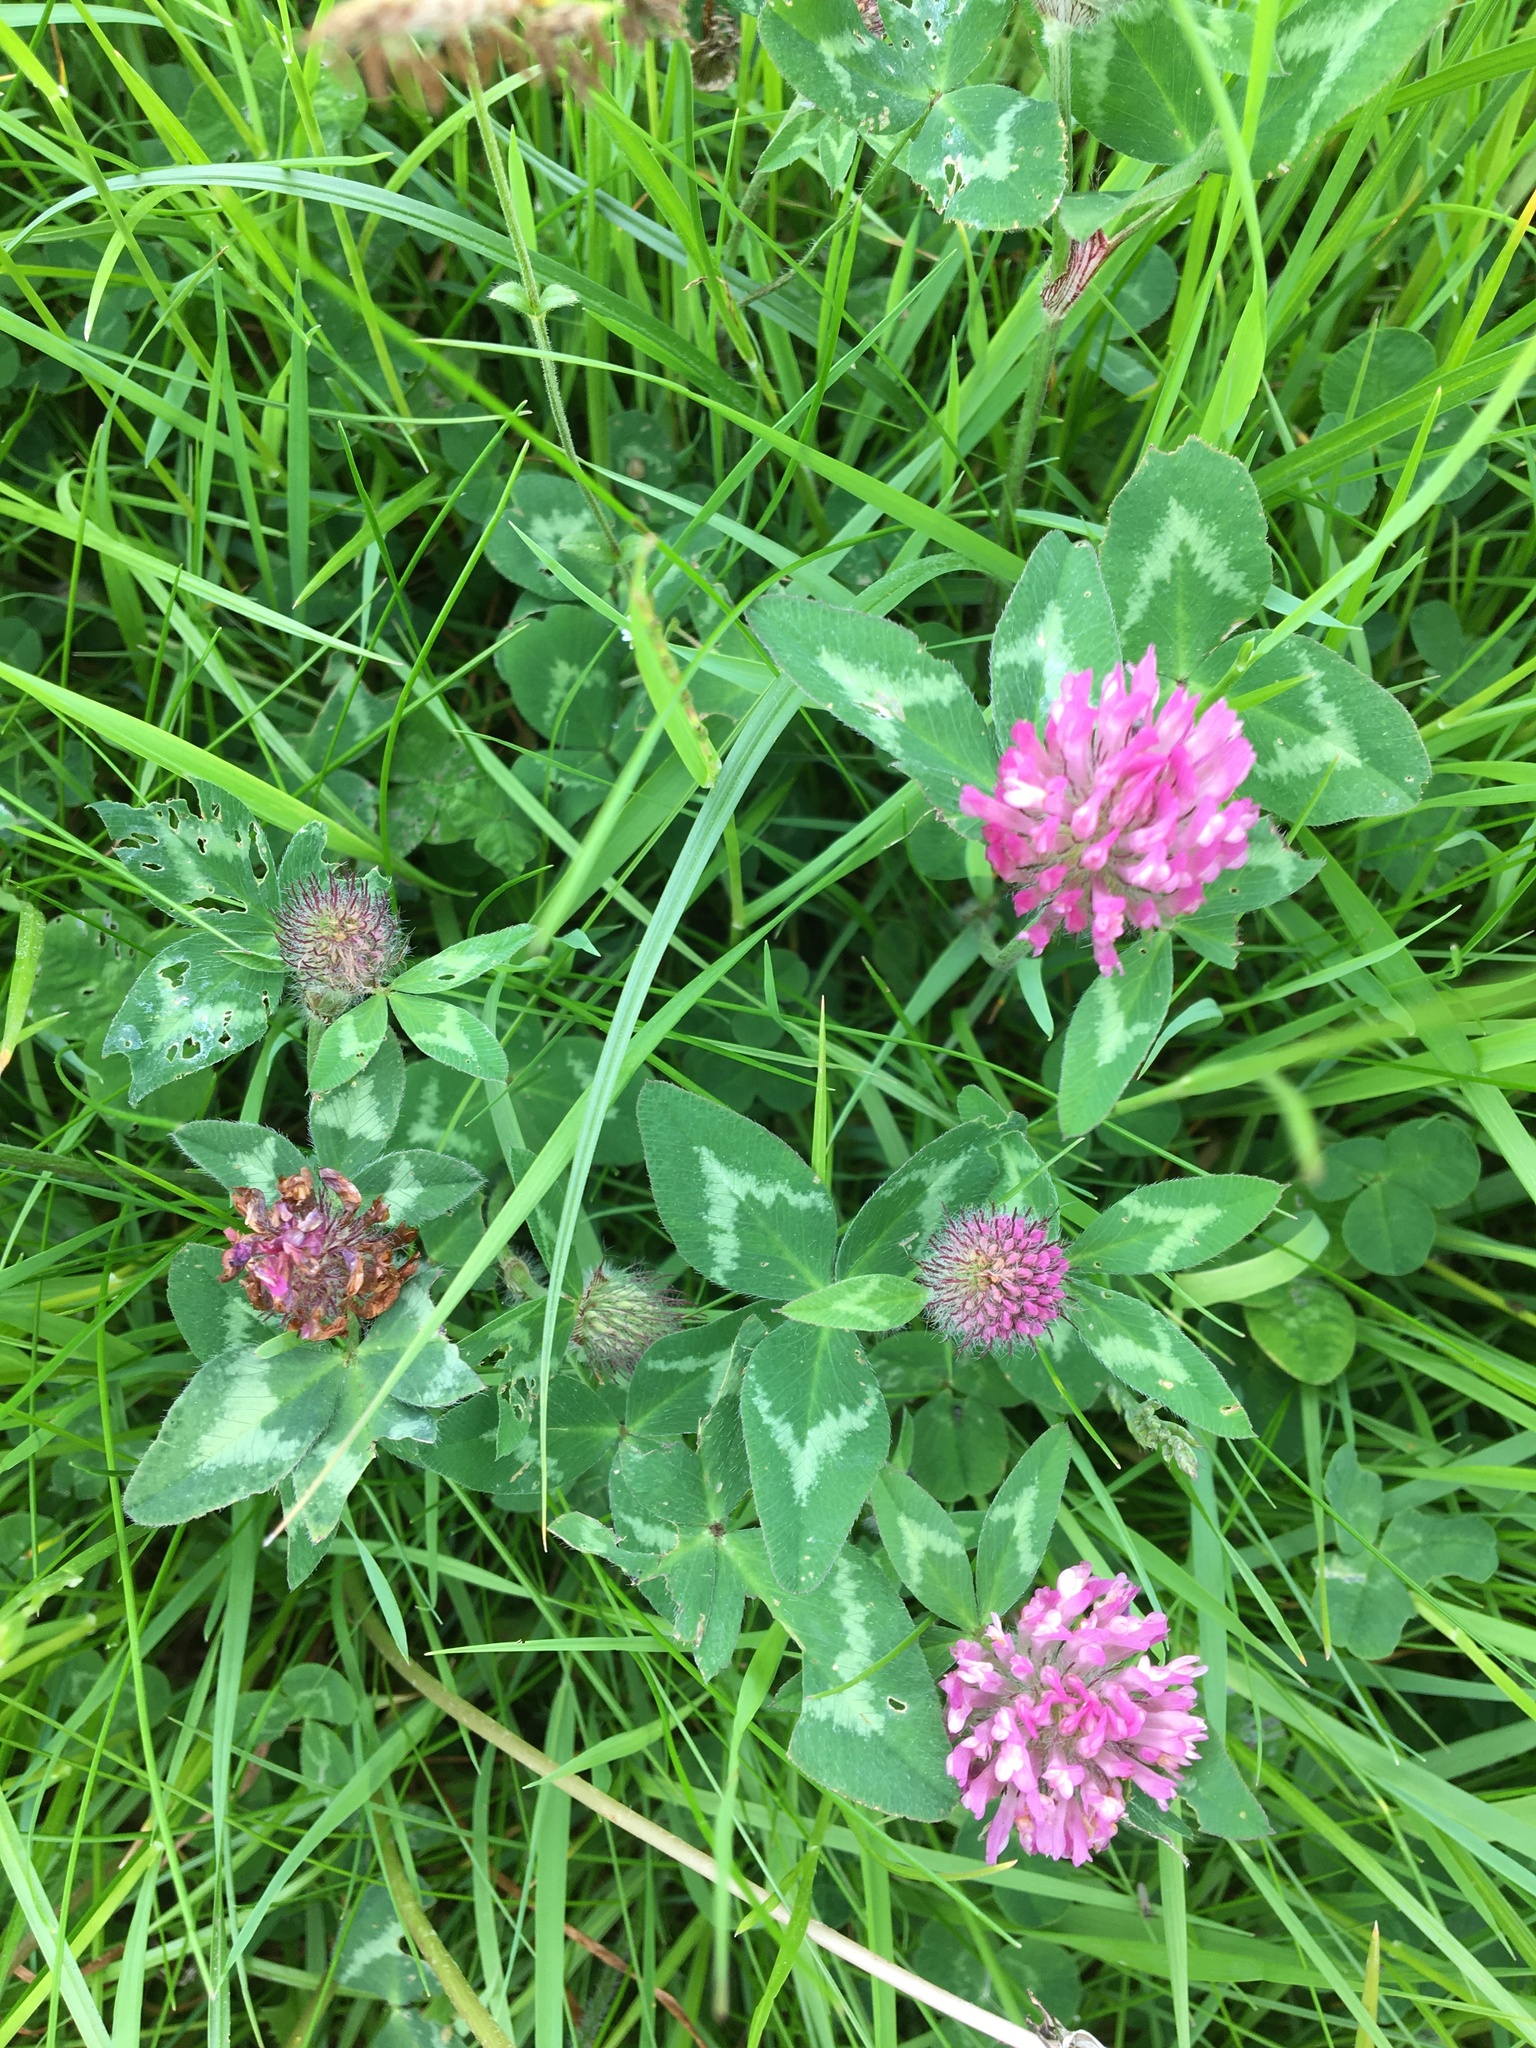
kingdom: Plantae
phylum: Tracheophyta
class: Magnoliopsida
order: Fabales
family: Fabaceae
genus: Trifolium
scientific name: Trifolium pratense
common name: Red clover
